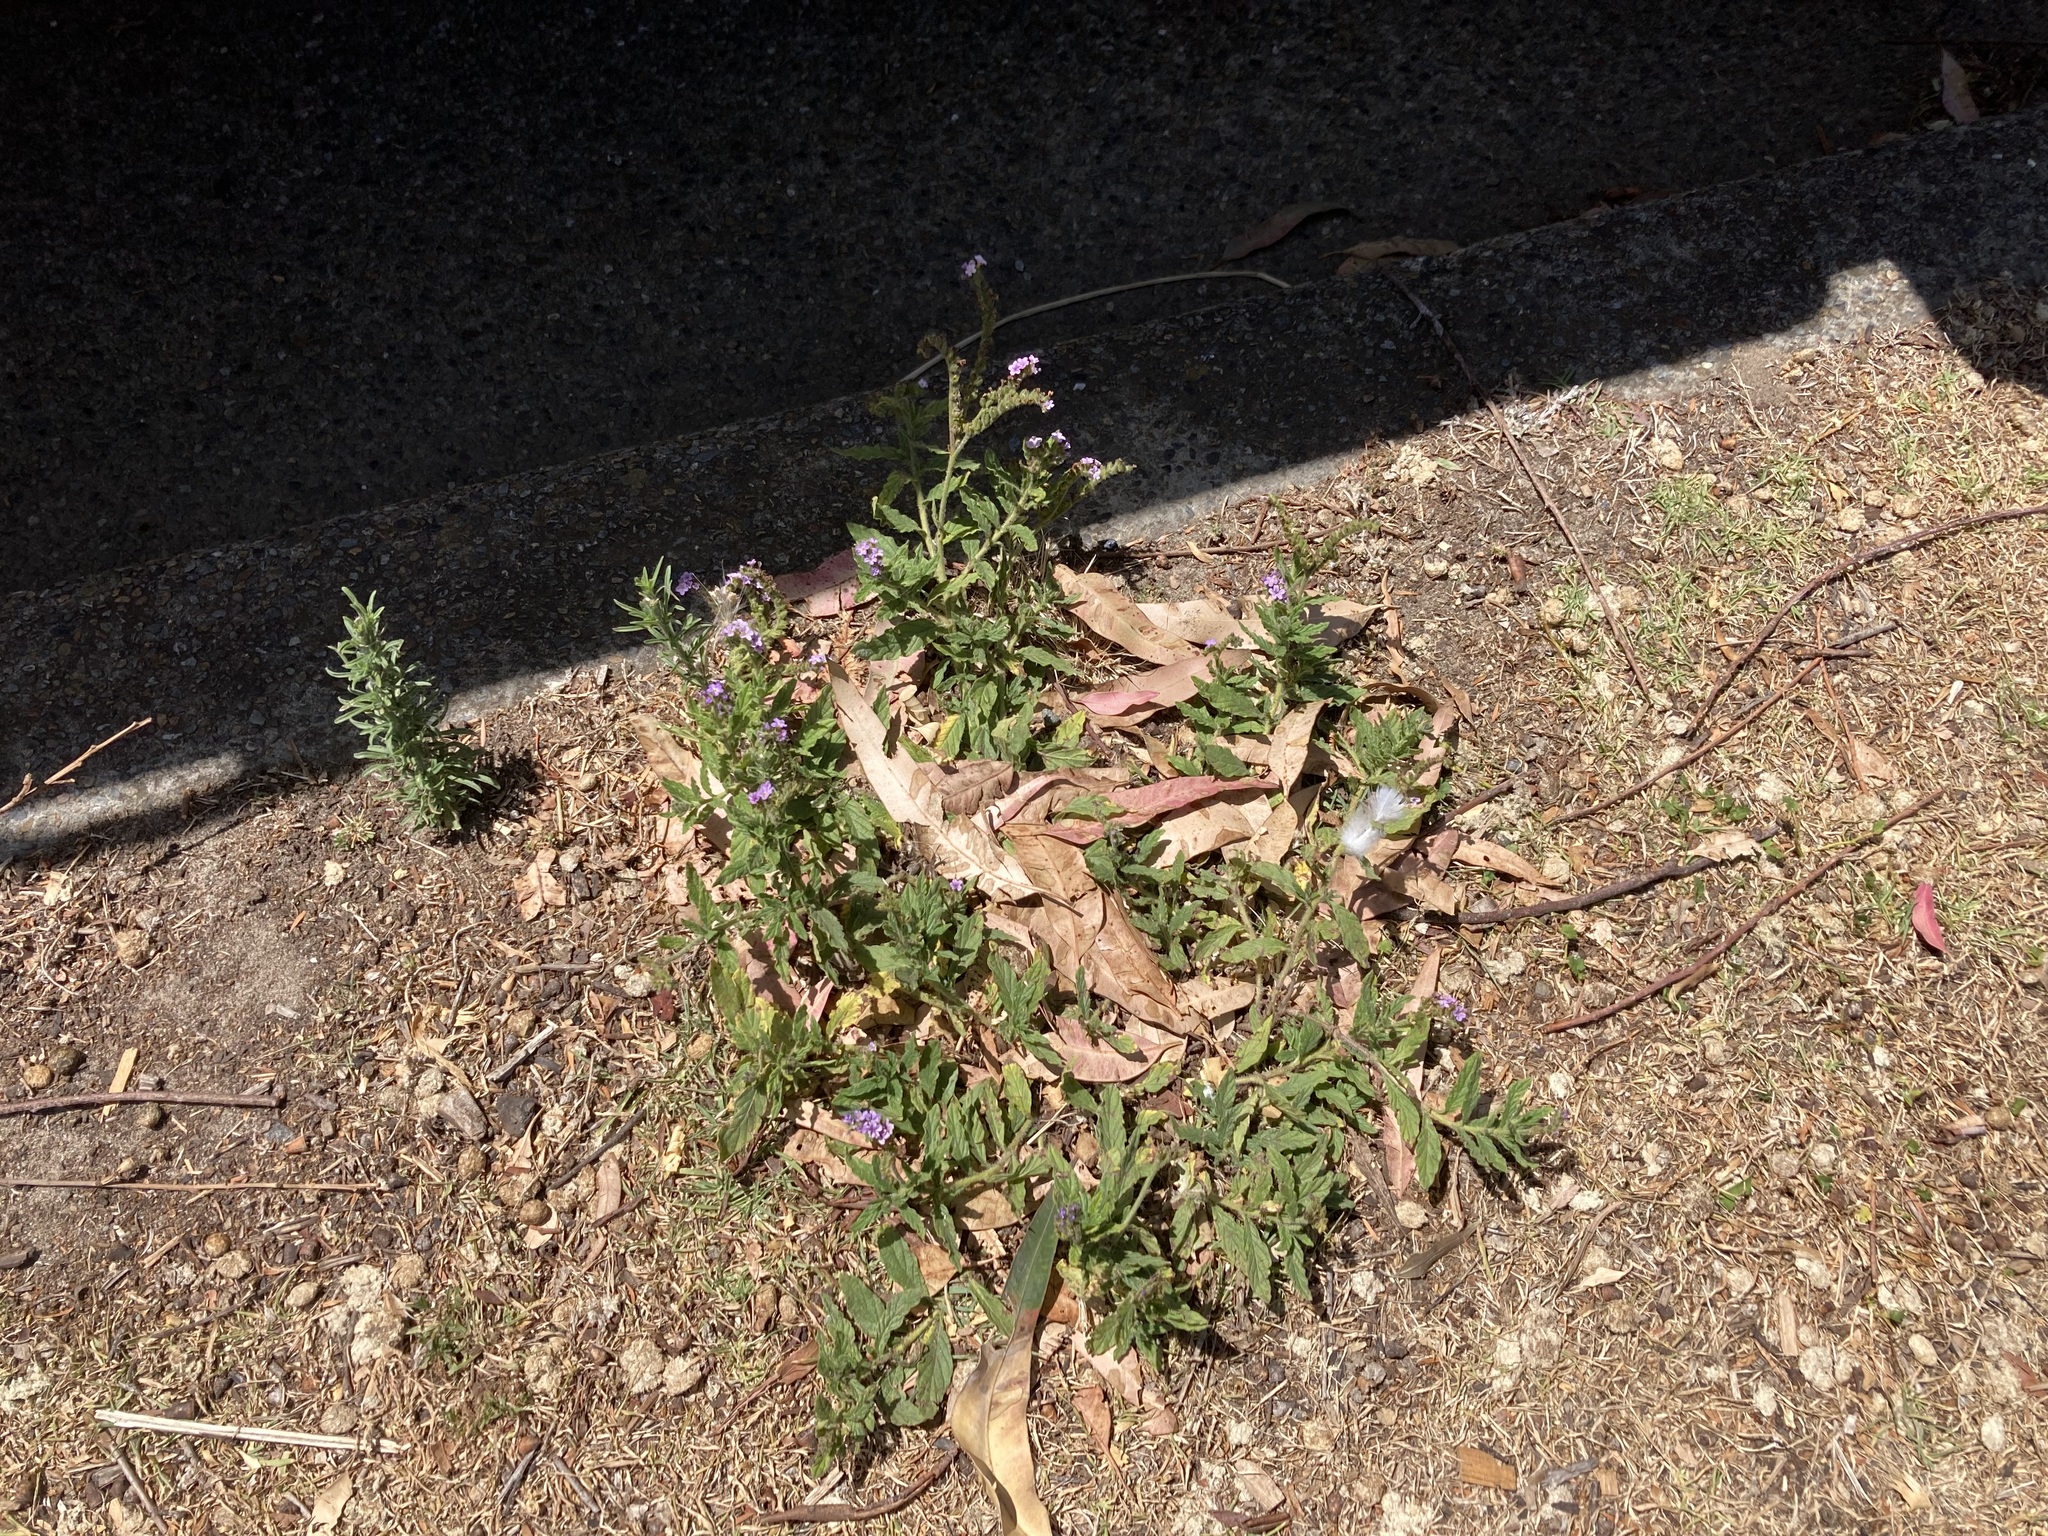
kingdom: Plantae
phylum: Tracheophyta
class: Magnoliopsida
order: Boraginales
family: Heliotropiaceae
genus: Heliotropium
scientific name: Heliotropium amplexicaule
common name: Clasping heliotrope
